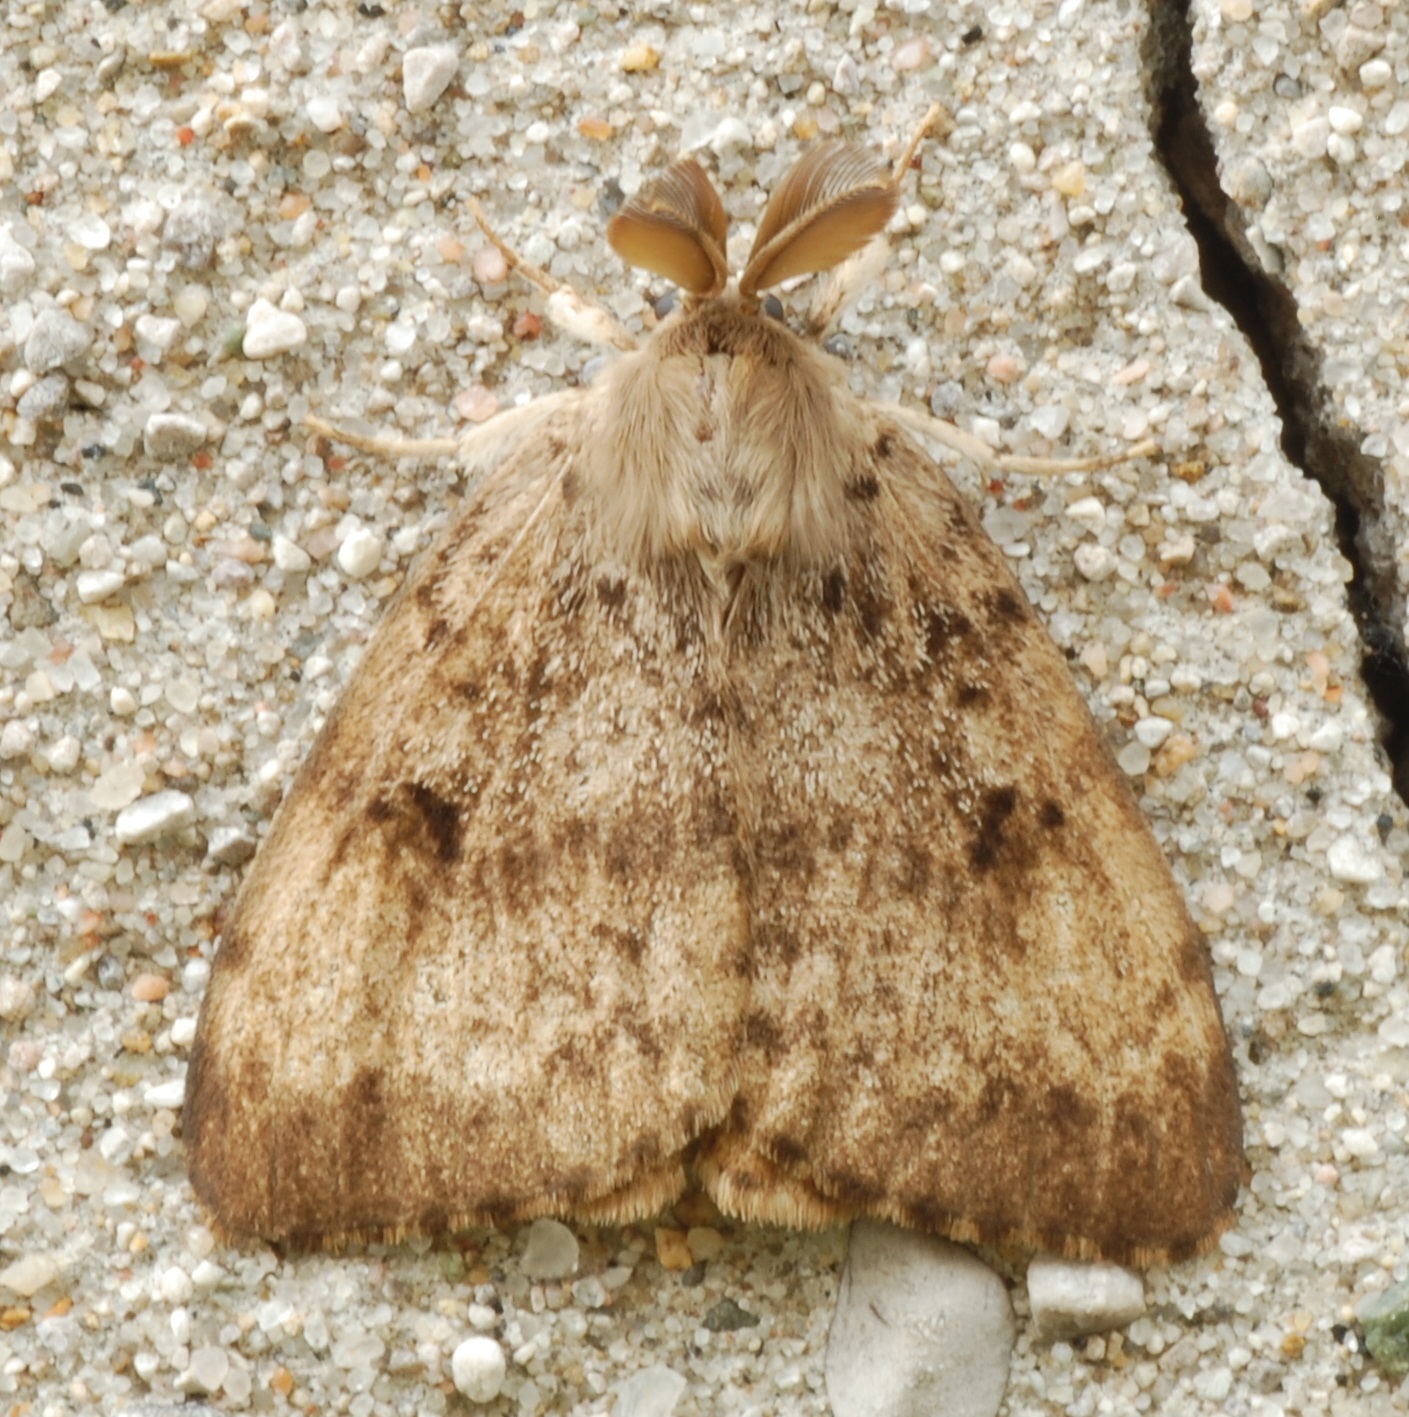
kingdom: Animalia
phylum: Arthropoda
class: Insecta
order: Lepidoptera
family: Erebidae
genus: Lymantria
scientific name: Lymantria dispar
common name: Gypsy moth
